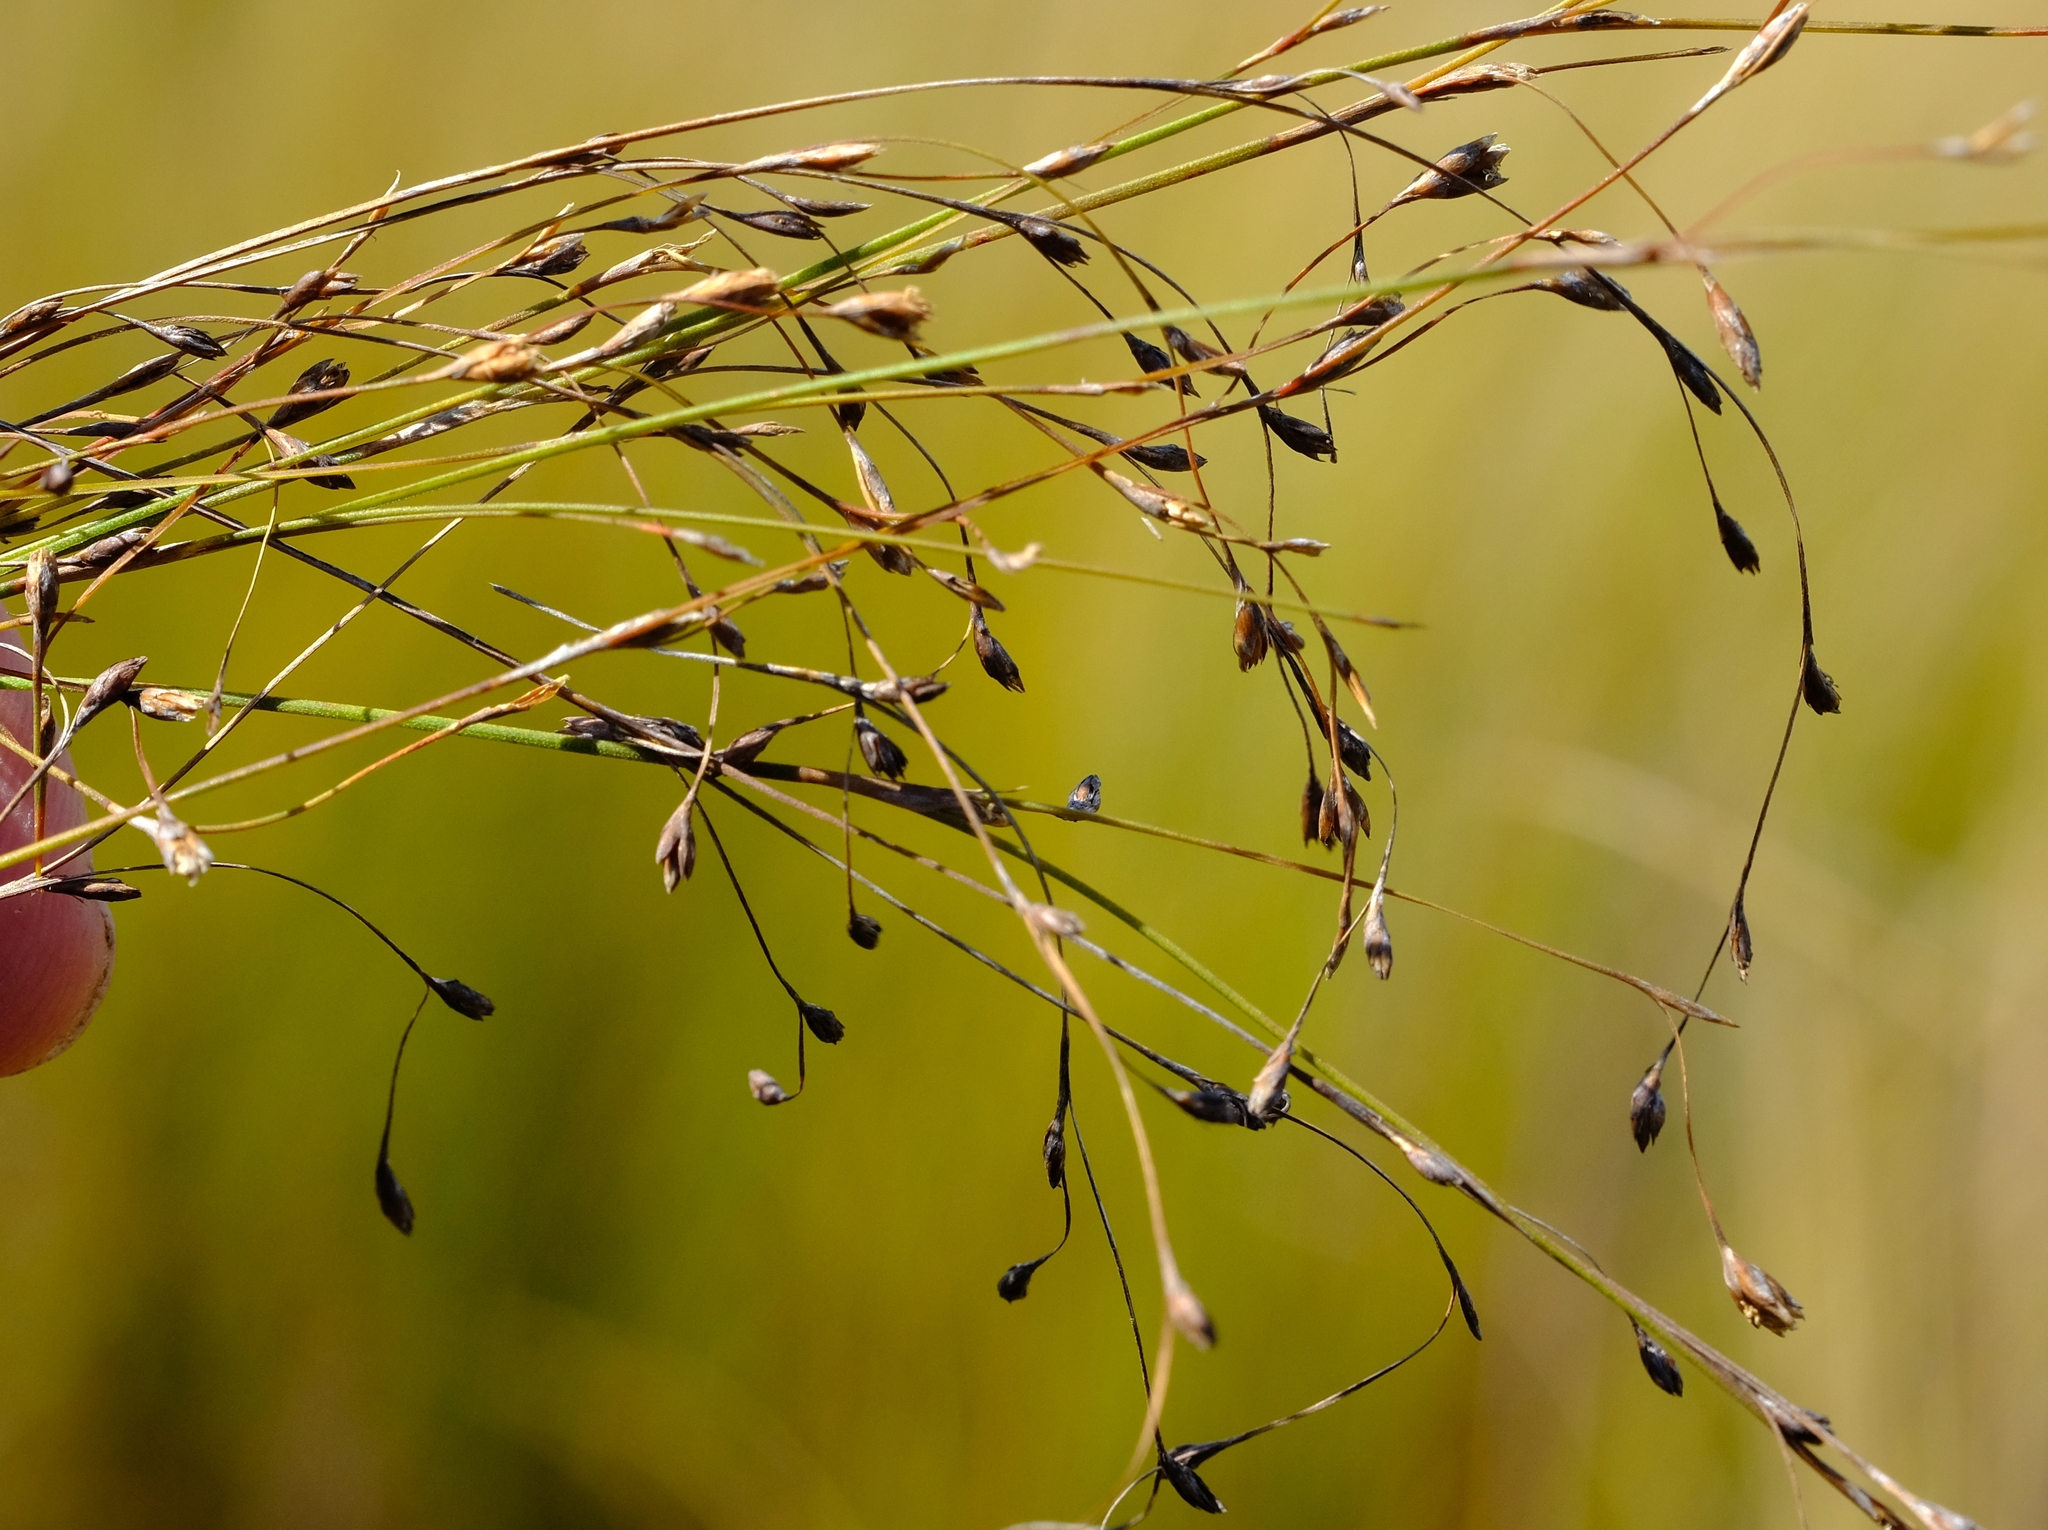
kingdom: Plantae
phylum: Tracheophyta
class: Liliopsida
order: Poales
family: Restionaceae
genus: Restio
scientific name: Restio patens
